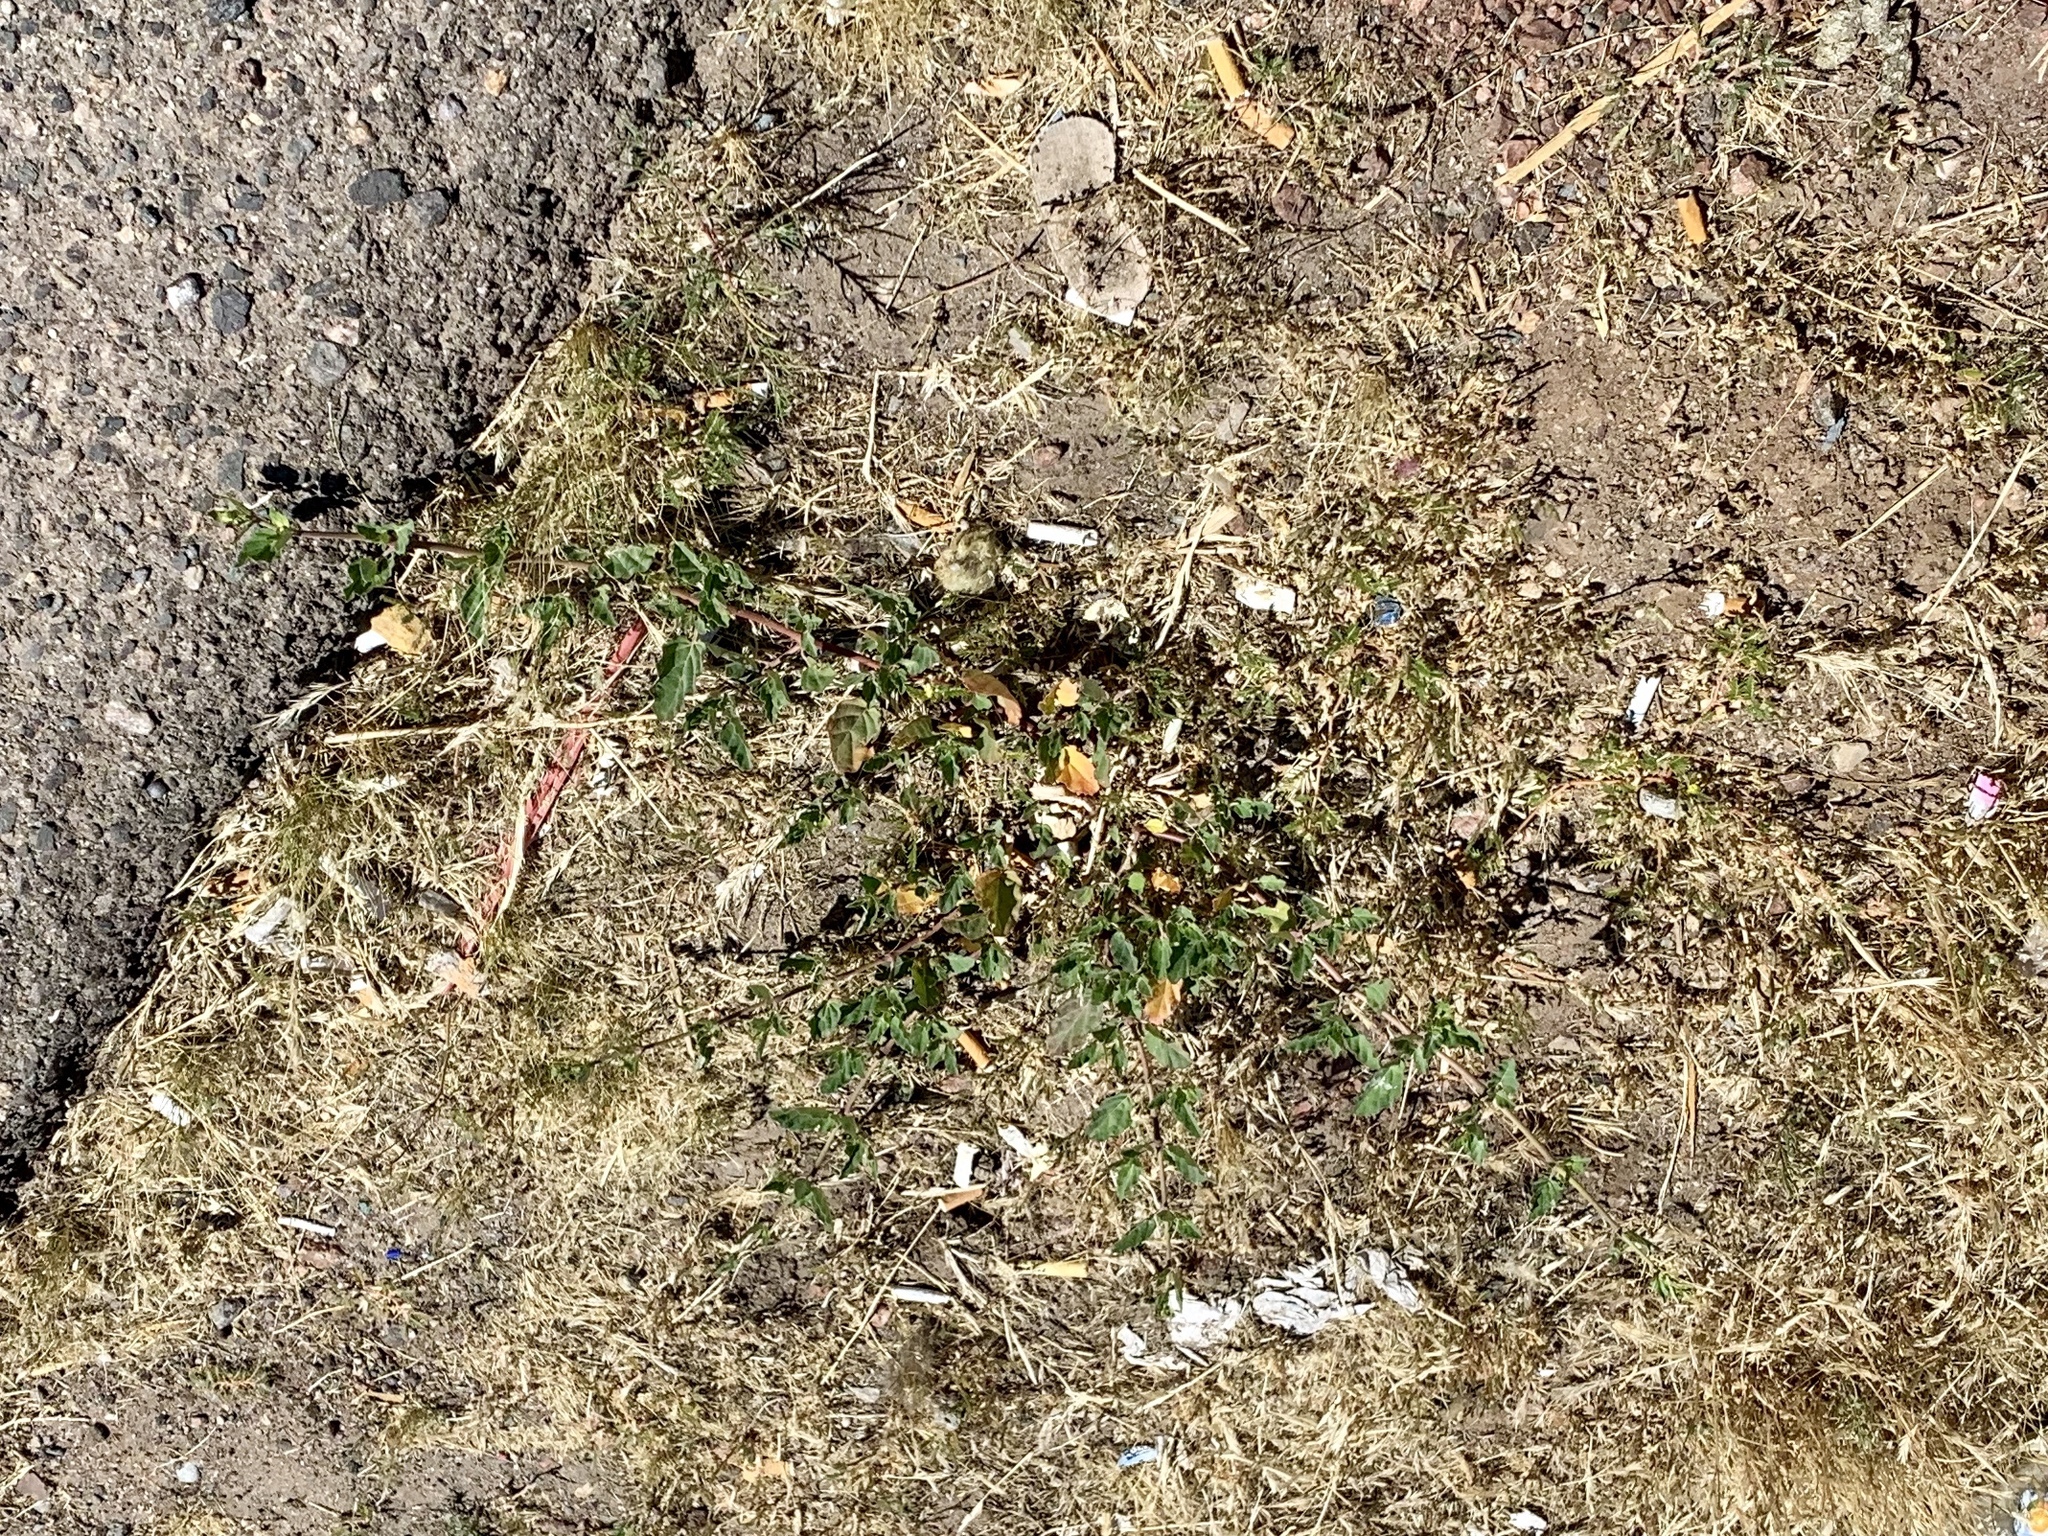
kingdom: Plantae
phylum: Tracheophyta
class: Magnoliopsida
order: Caryophyllales
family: Nyctaginaceae
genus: Boerhavia
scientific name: Boerhavia coccinea
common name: Scarlet spiderling
